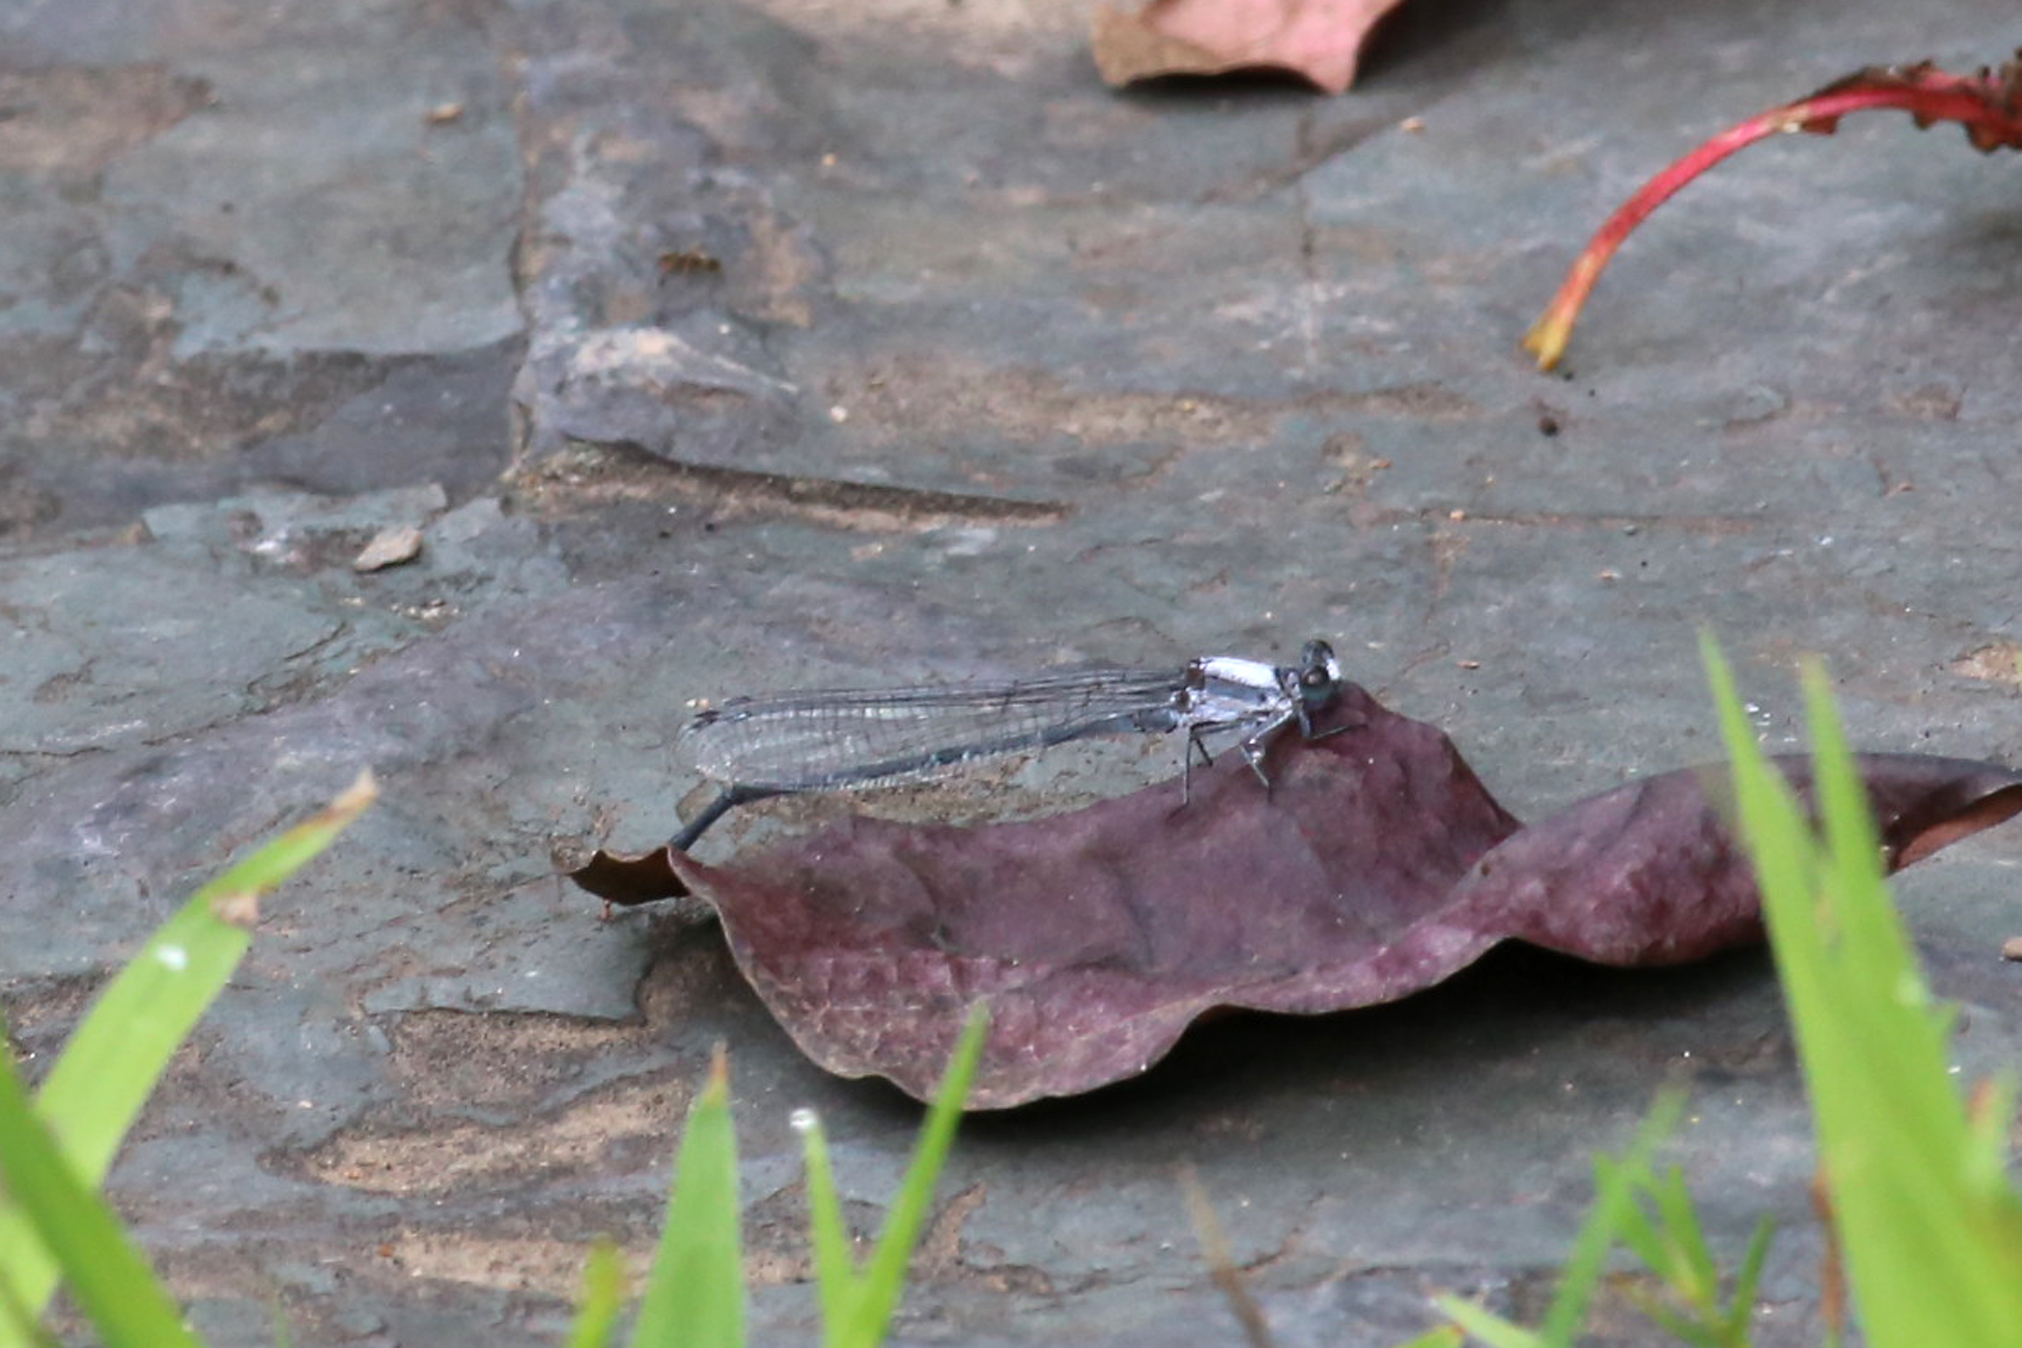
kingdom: Animalia
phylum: Arthropoda
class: Insecta
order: Odonata
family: Coenagrionidae
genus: Argia
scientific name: Argia moesta
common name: Powdered dancer
